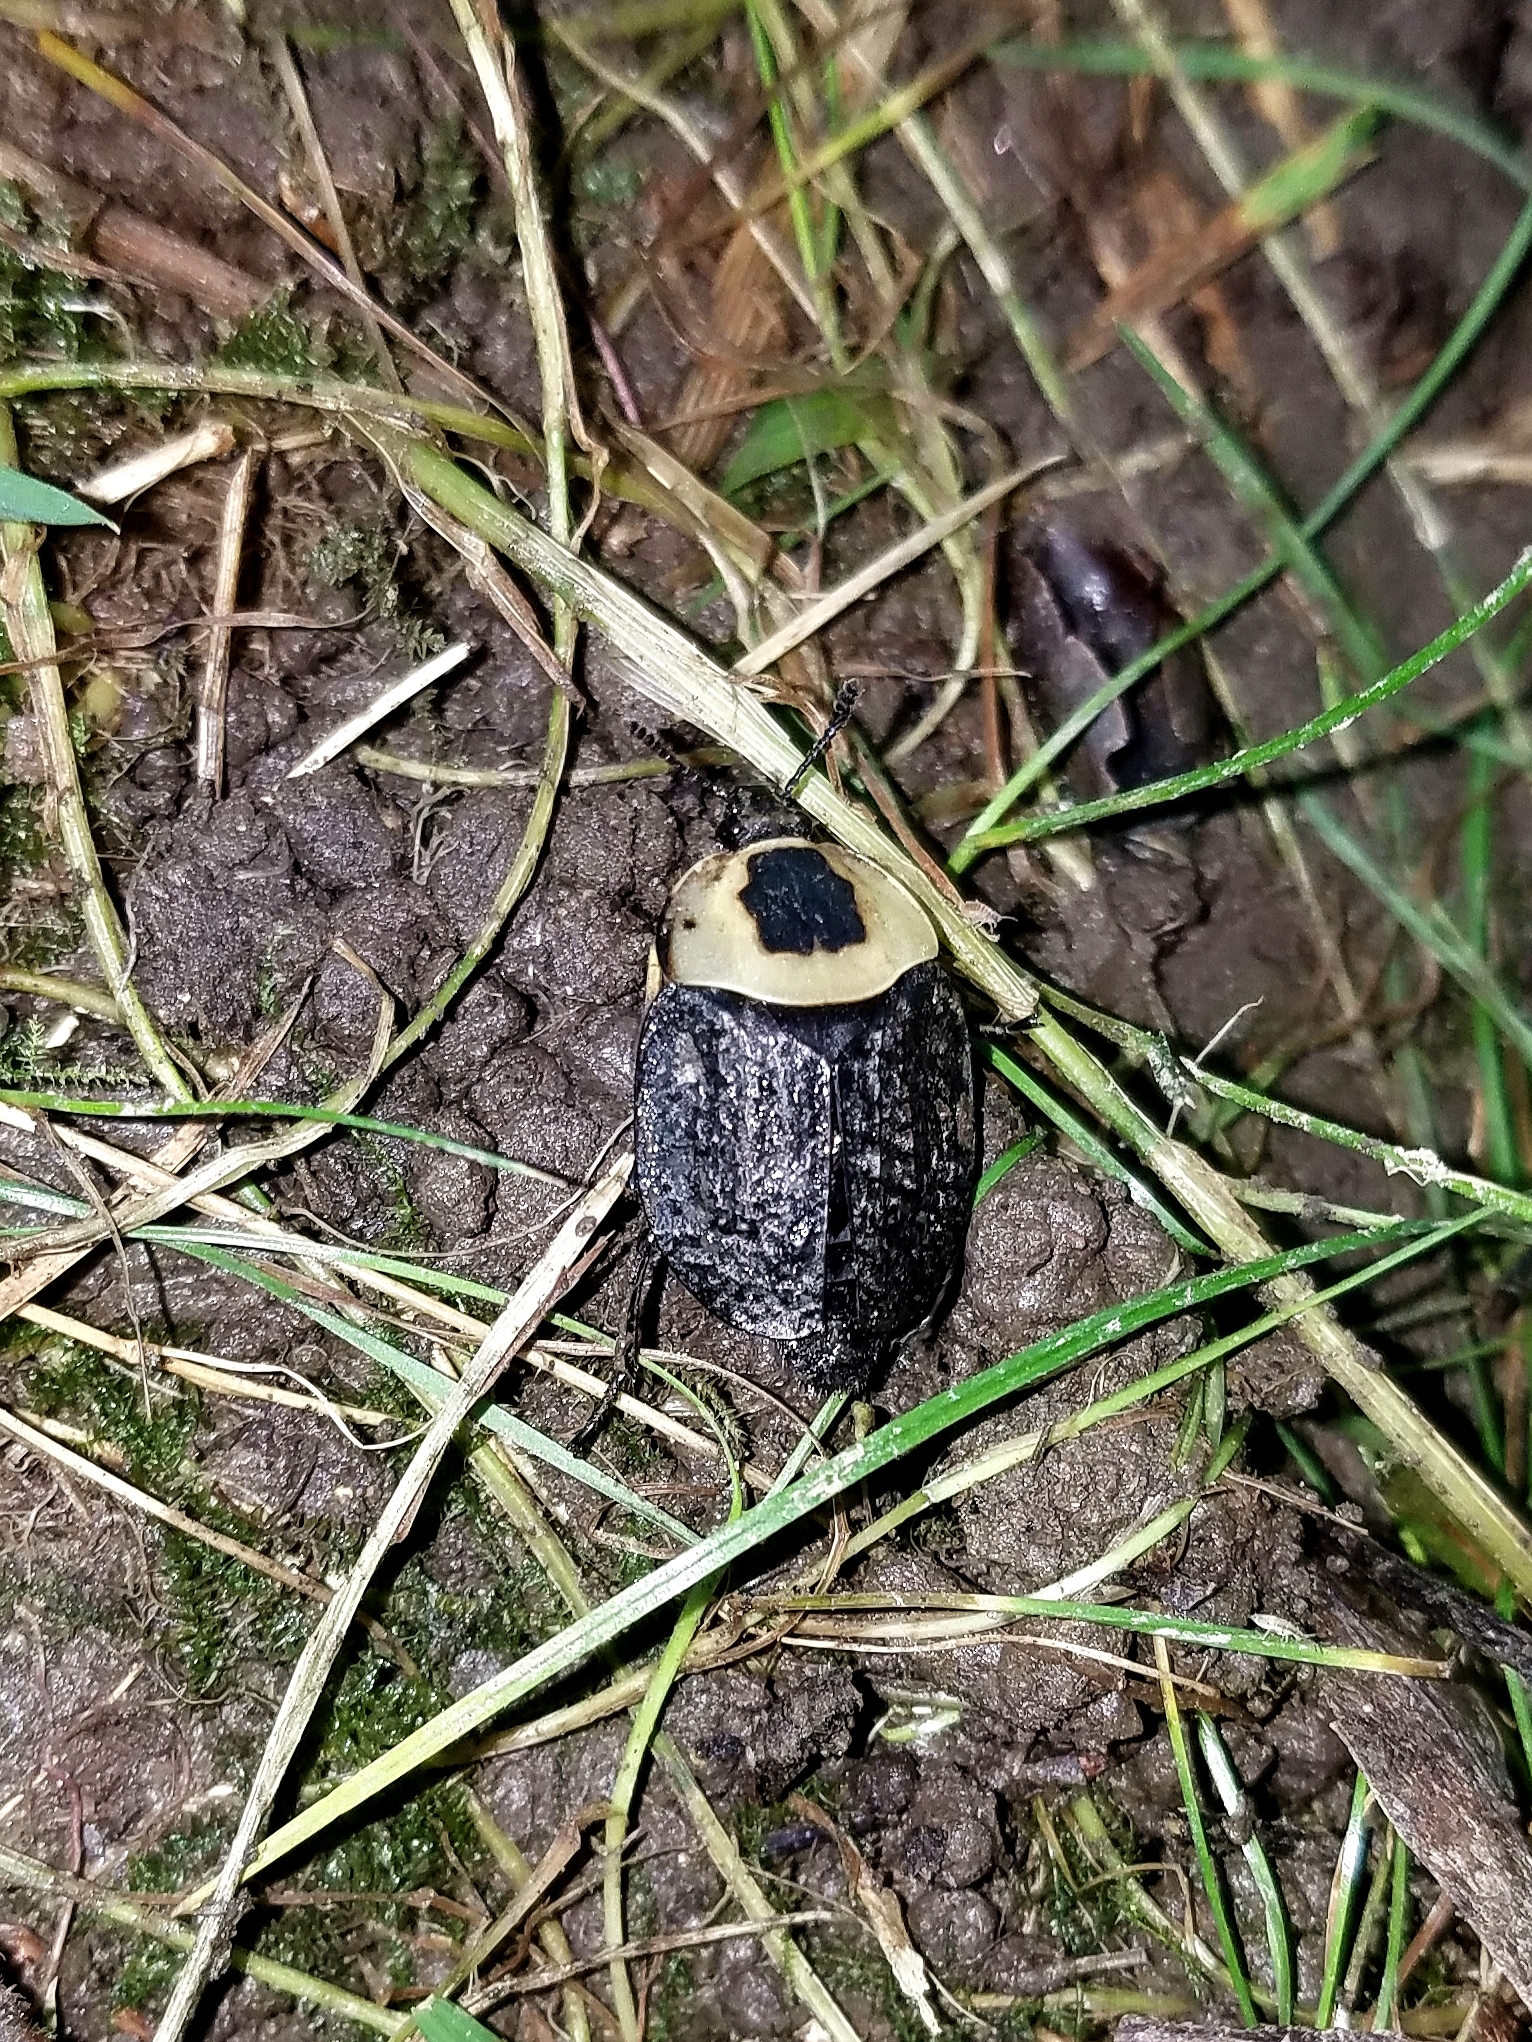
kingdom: Animalia
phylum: Arthropoda
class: Insecta
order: Coleoptera
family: Staphylinidae
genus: Necrophila
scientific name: Necrophila americana
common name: American carrion beetle
